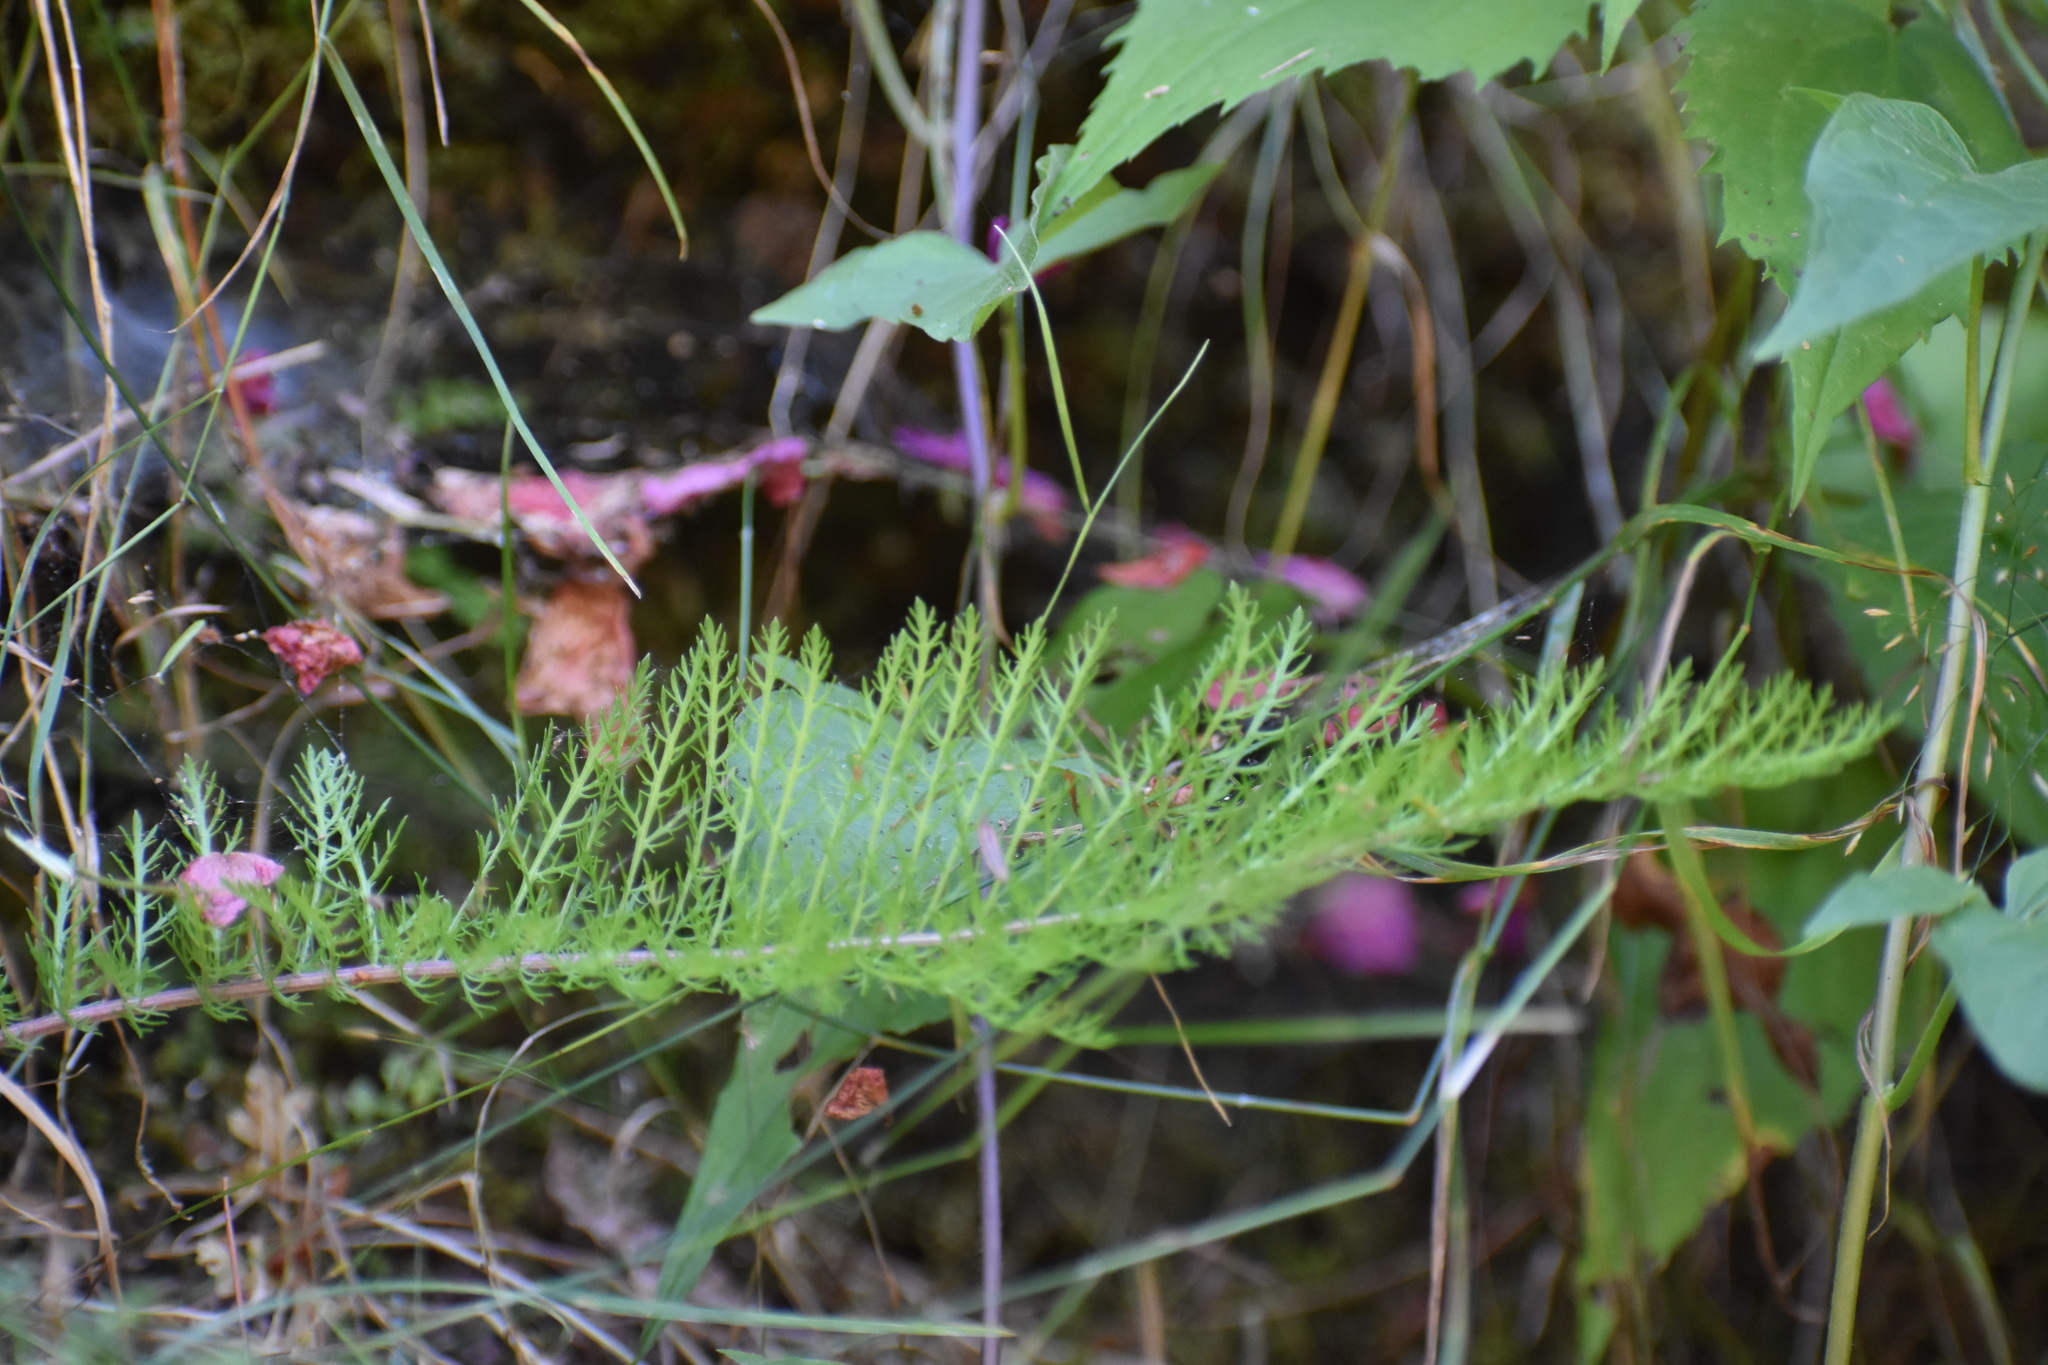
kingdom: Plantae
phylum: Tracheophyta
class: Magnoliopsida
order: Asterales
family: Asteraceae
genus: Achillea
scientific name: Achillea millefolium
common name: Yarrow
